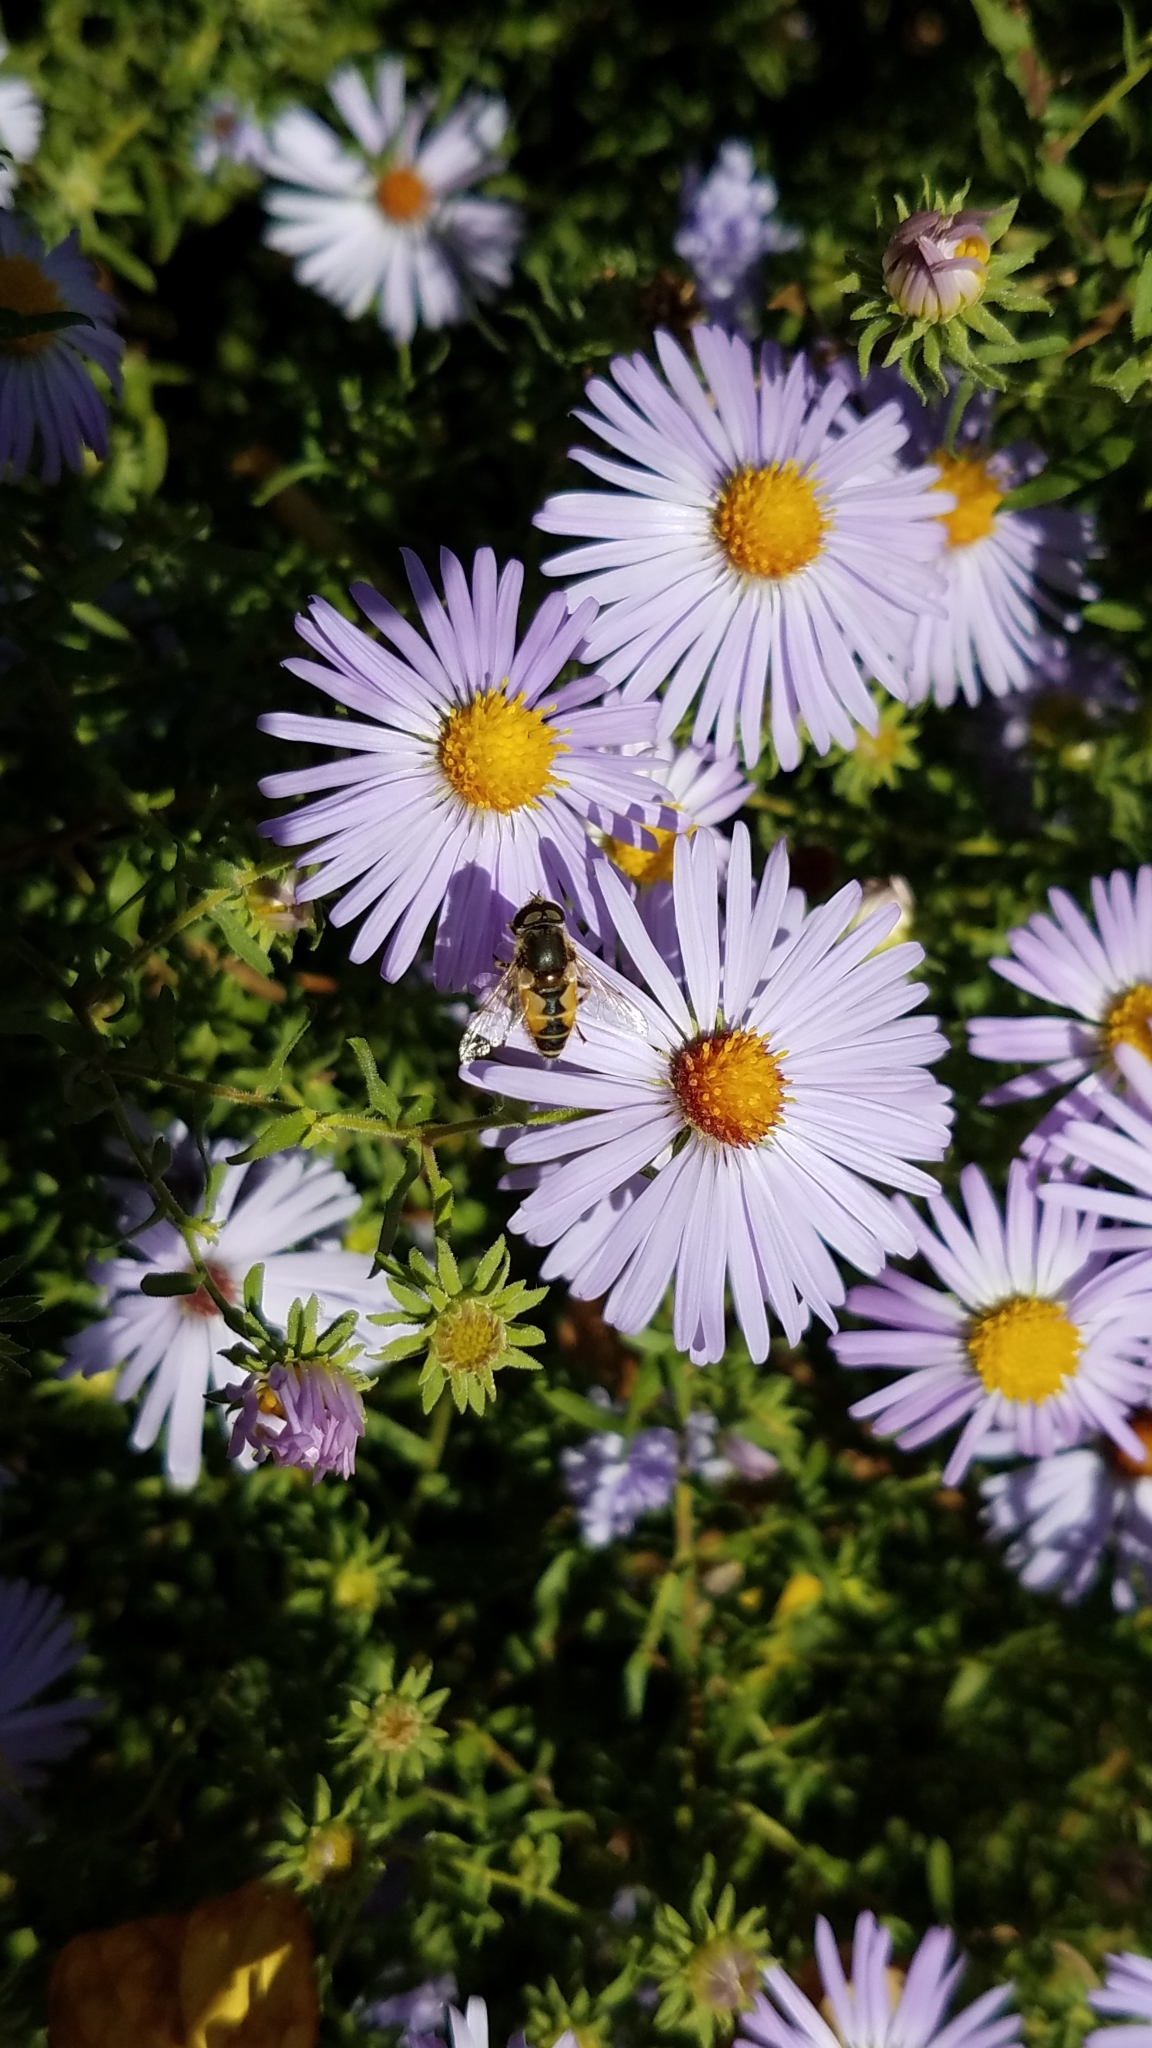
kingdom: Animalia
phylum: Arthropoda
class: Insecta
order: Diptera
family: Syrphidae
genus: Eristalis
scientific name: Eristalis arbustorum
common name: Hover fly
